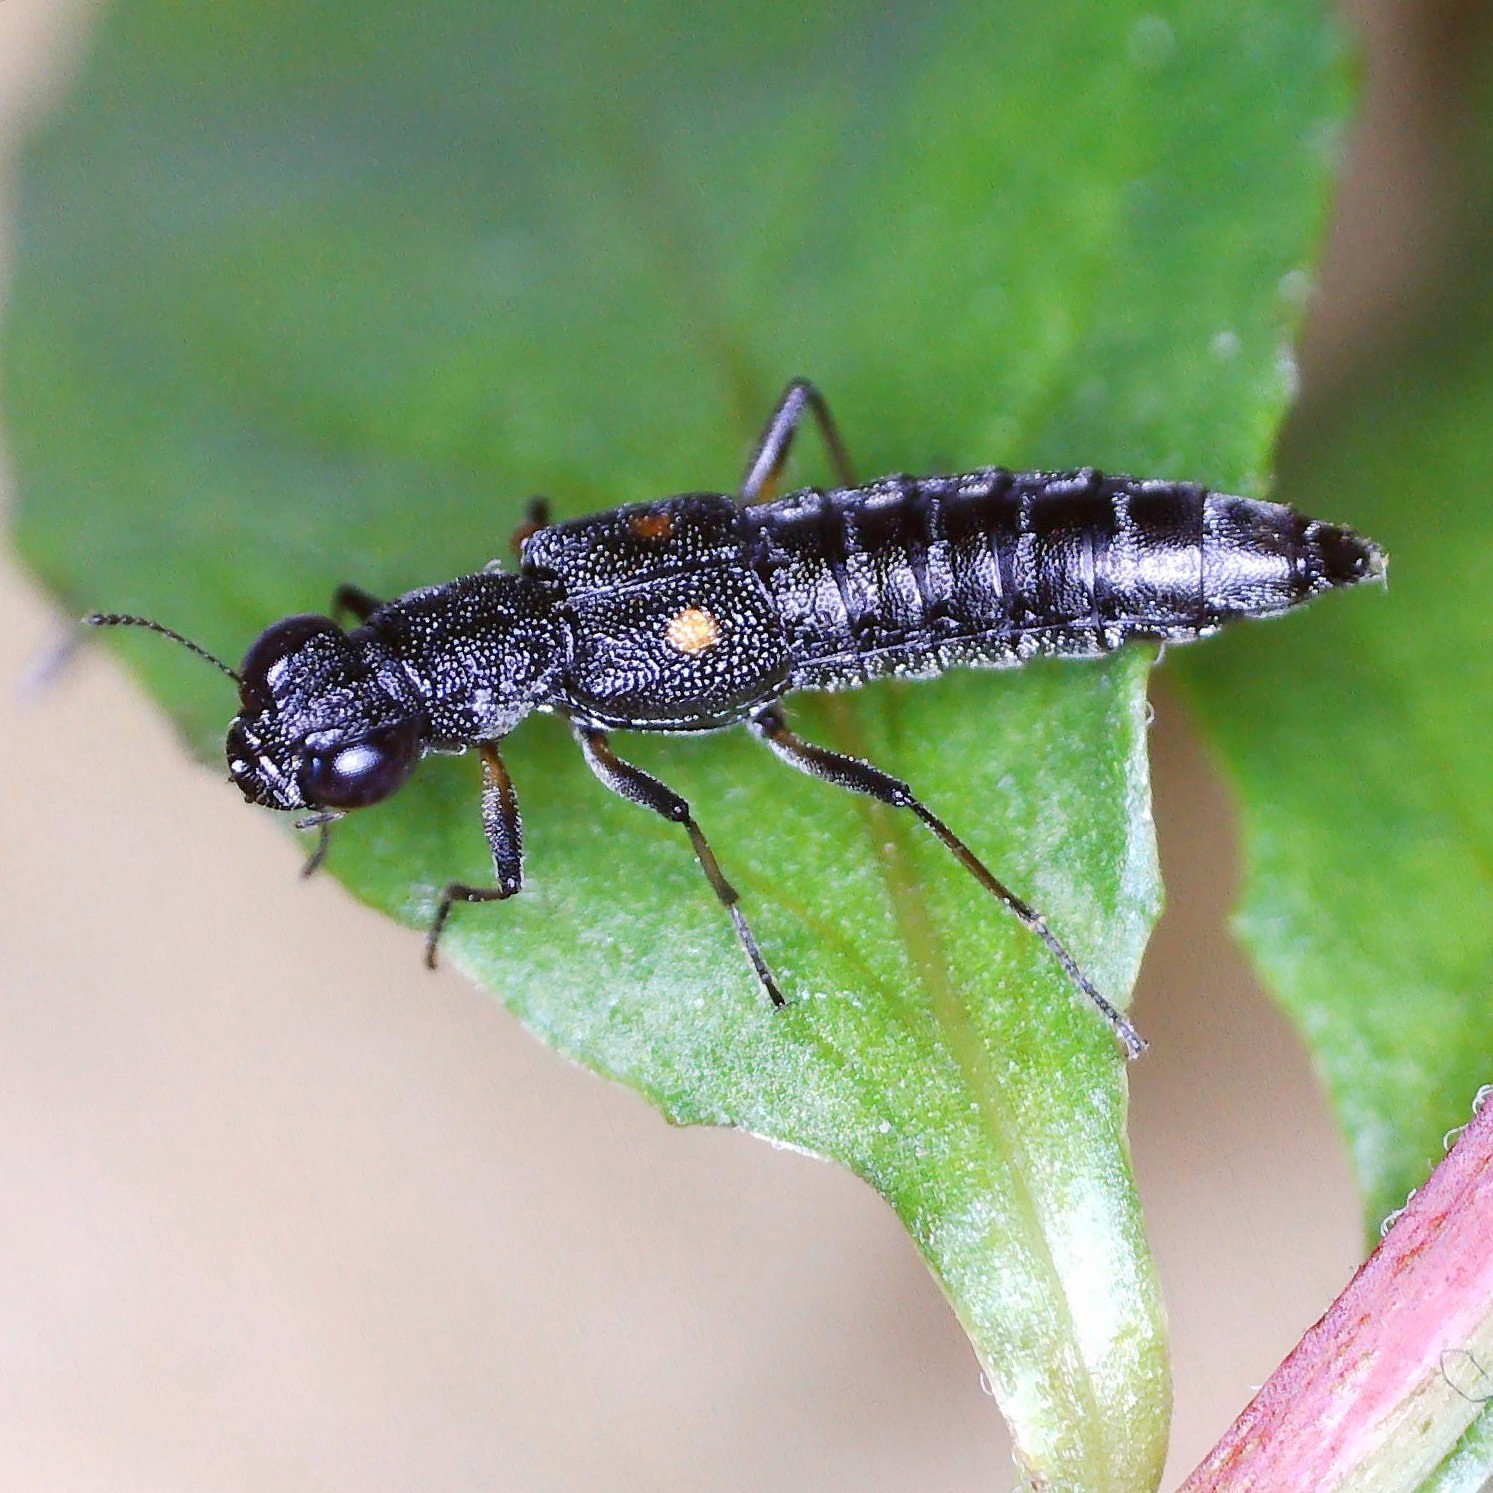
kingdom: Animalia
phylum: Arthropoda
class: Insecta
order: Coleoptera
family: Staphylinidae
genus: Stenus
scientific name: Stenus bimaculatus
